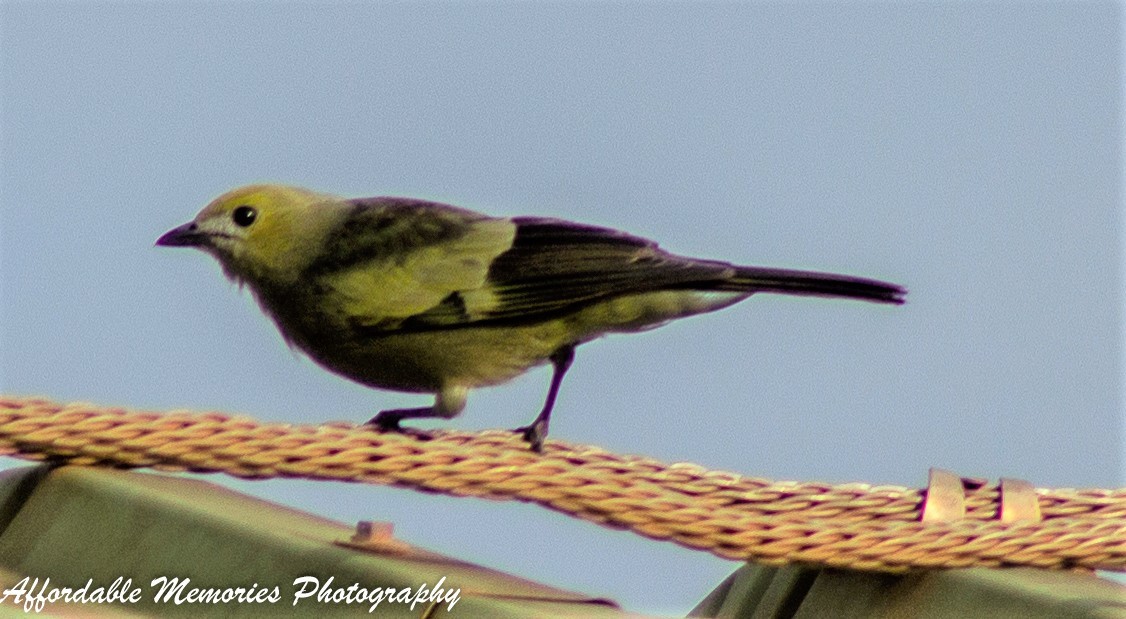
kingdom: Animalia
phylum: Chordata
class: Aves
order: Passeriformes
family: Thraupidae
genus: Thraupis
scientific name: Thraupis palmarum
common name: Palm tanager
